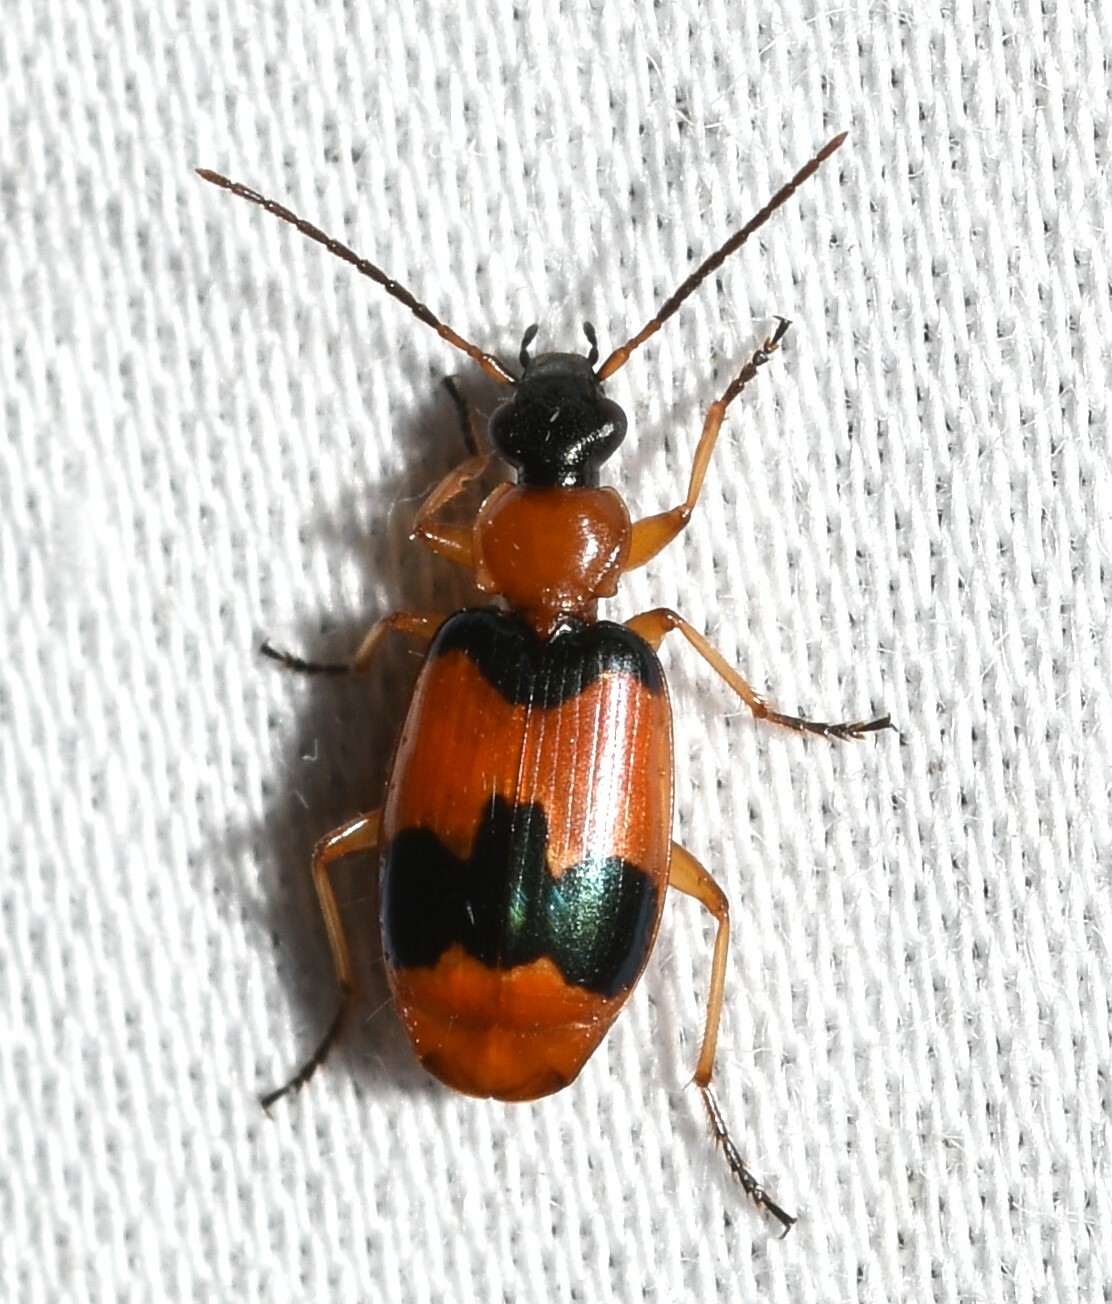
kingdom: Animalia
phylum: Arthropoda
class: Insecta
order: Coleoptera
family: Carabidae
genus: Lebia
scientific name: Lebia pulchella
